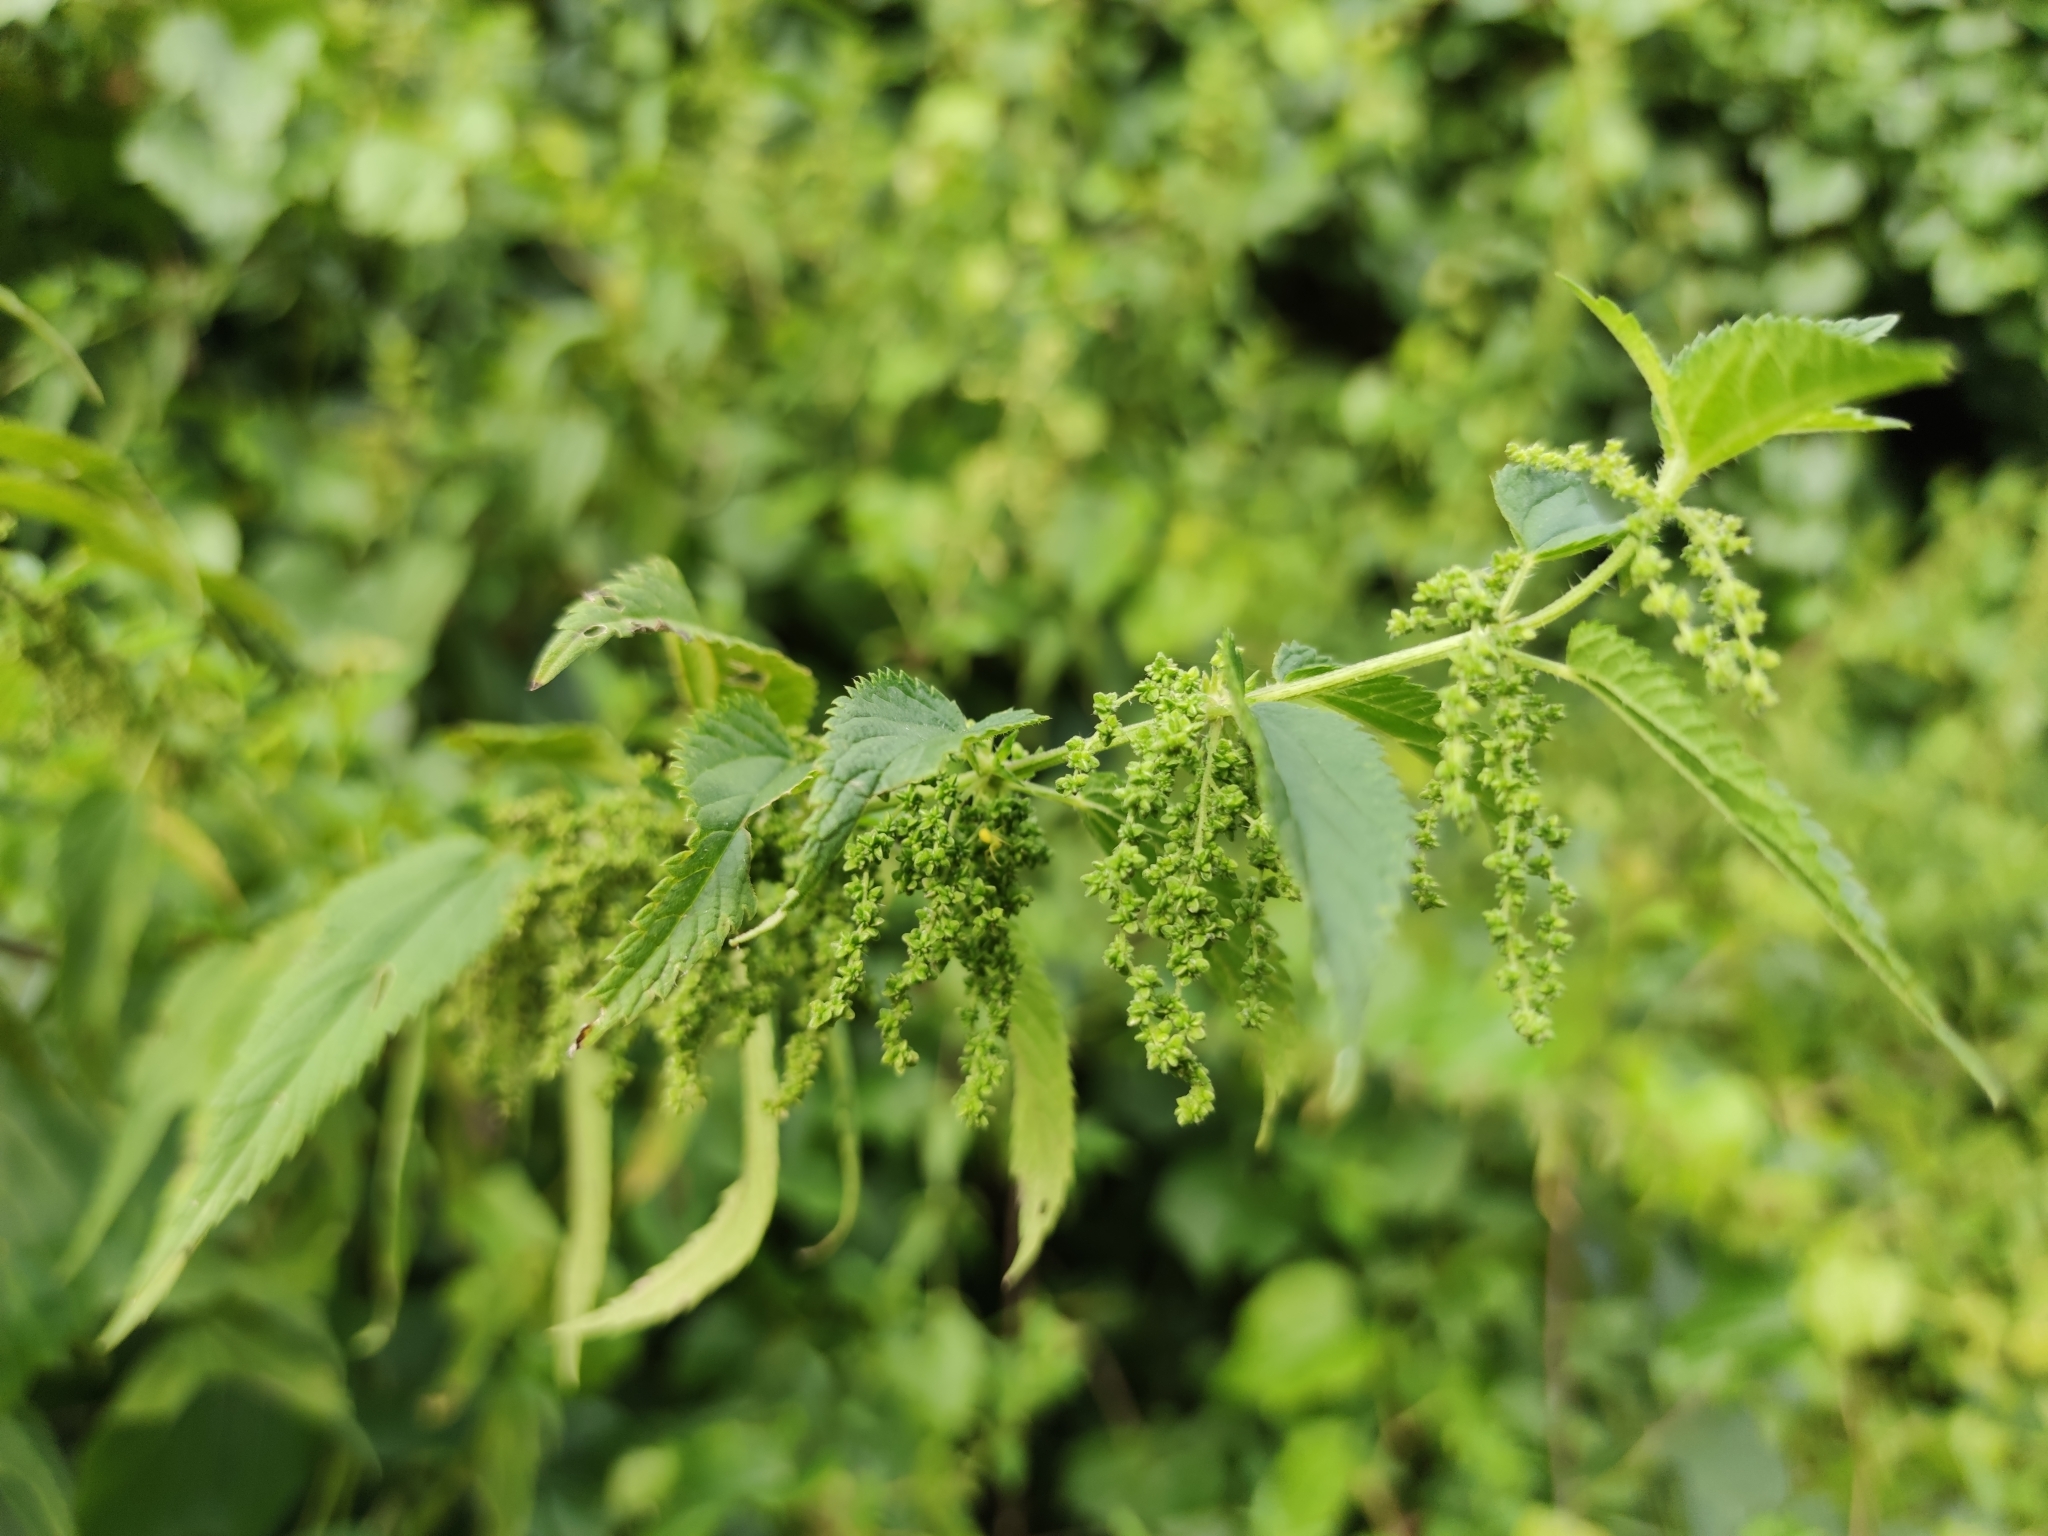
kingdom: Plantae
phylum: Tracheophyta
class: Magnoliopsida
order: Rosales
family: Urticaceae
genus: Urtica
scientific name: Urtica dioica
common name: Common nettle
